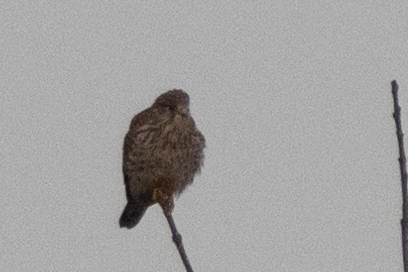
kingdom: Animalia
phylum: Chordata
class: Aves
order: Falconiformes
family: Falconidae
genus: Falco
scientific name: Falco tinnunculus
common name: Common kestrel
